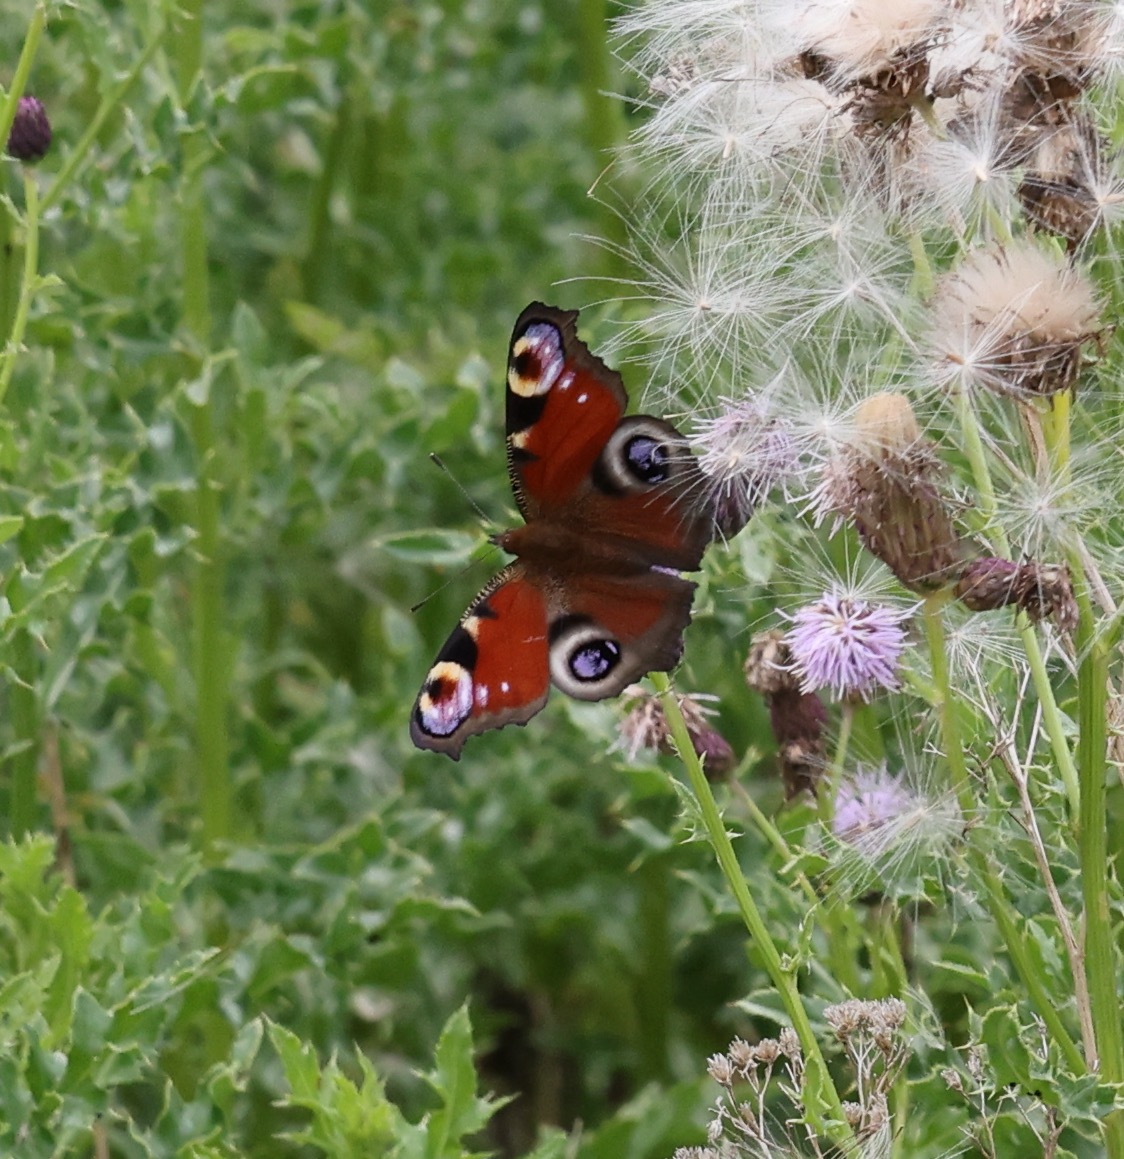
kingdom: Animalia
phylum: Arthropoda
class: Insecta
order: Lepidoptera
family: Nymphalidae
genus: Aglais
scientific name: Aglais io
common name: Peacock
